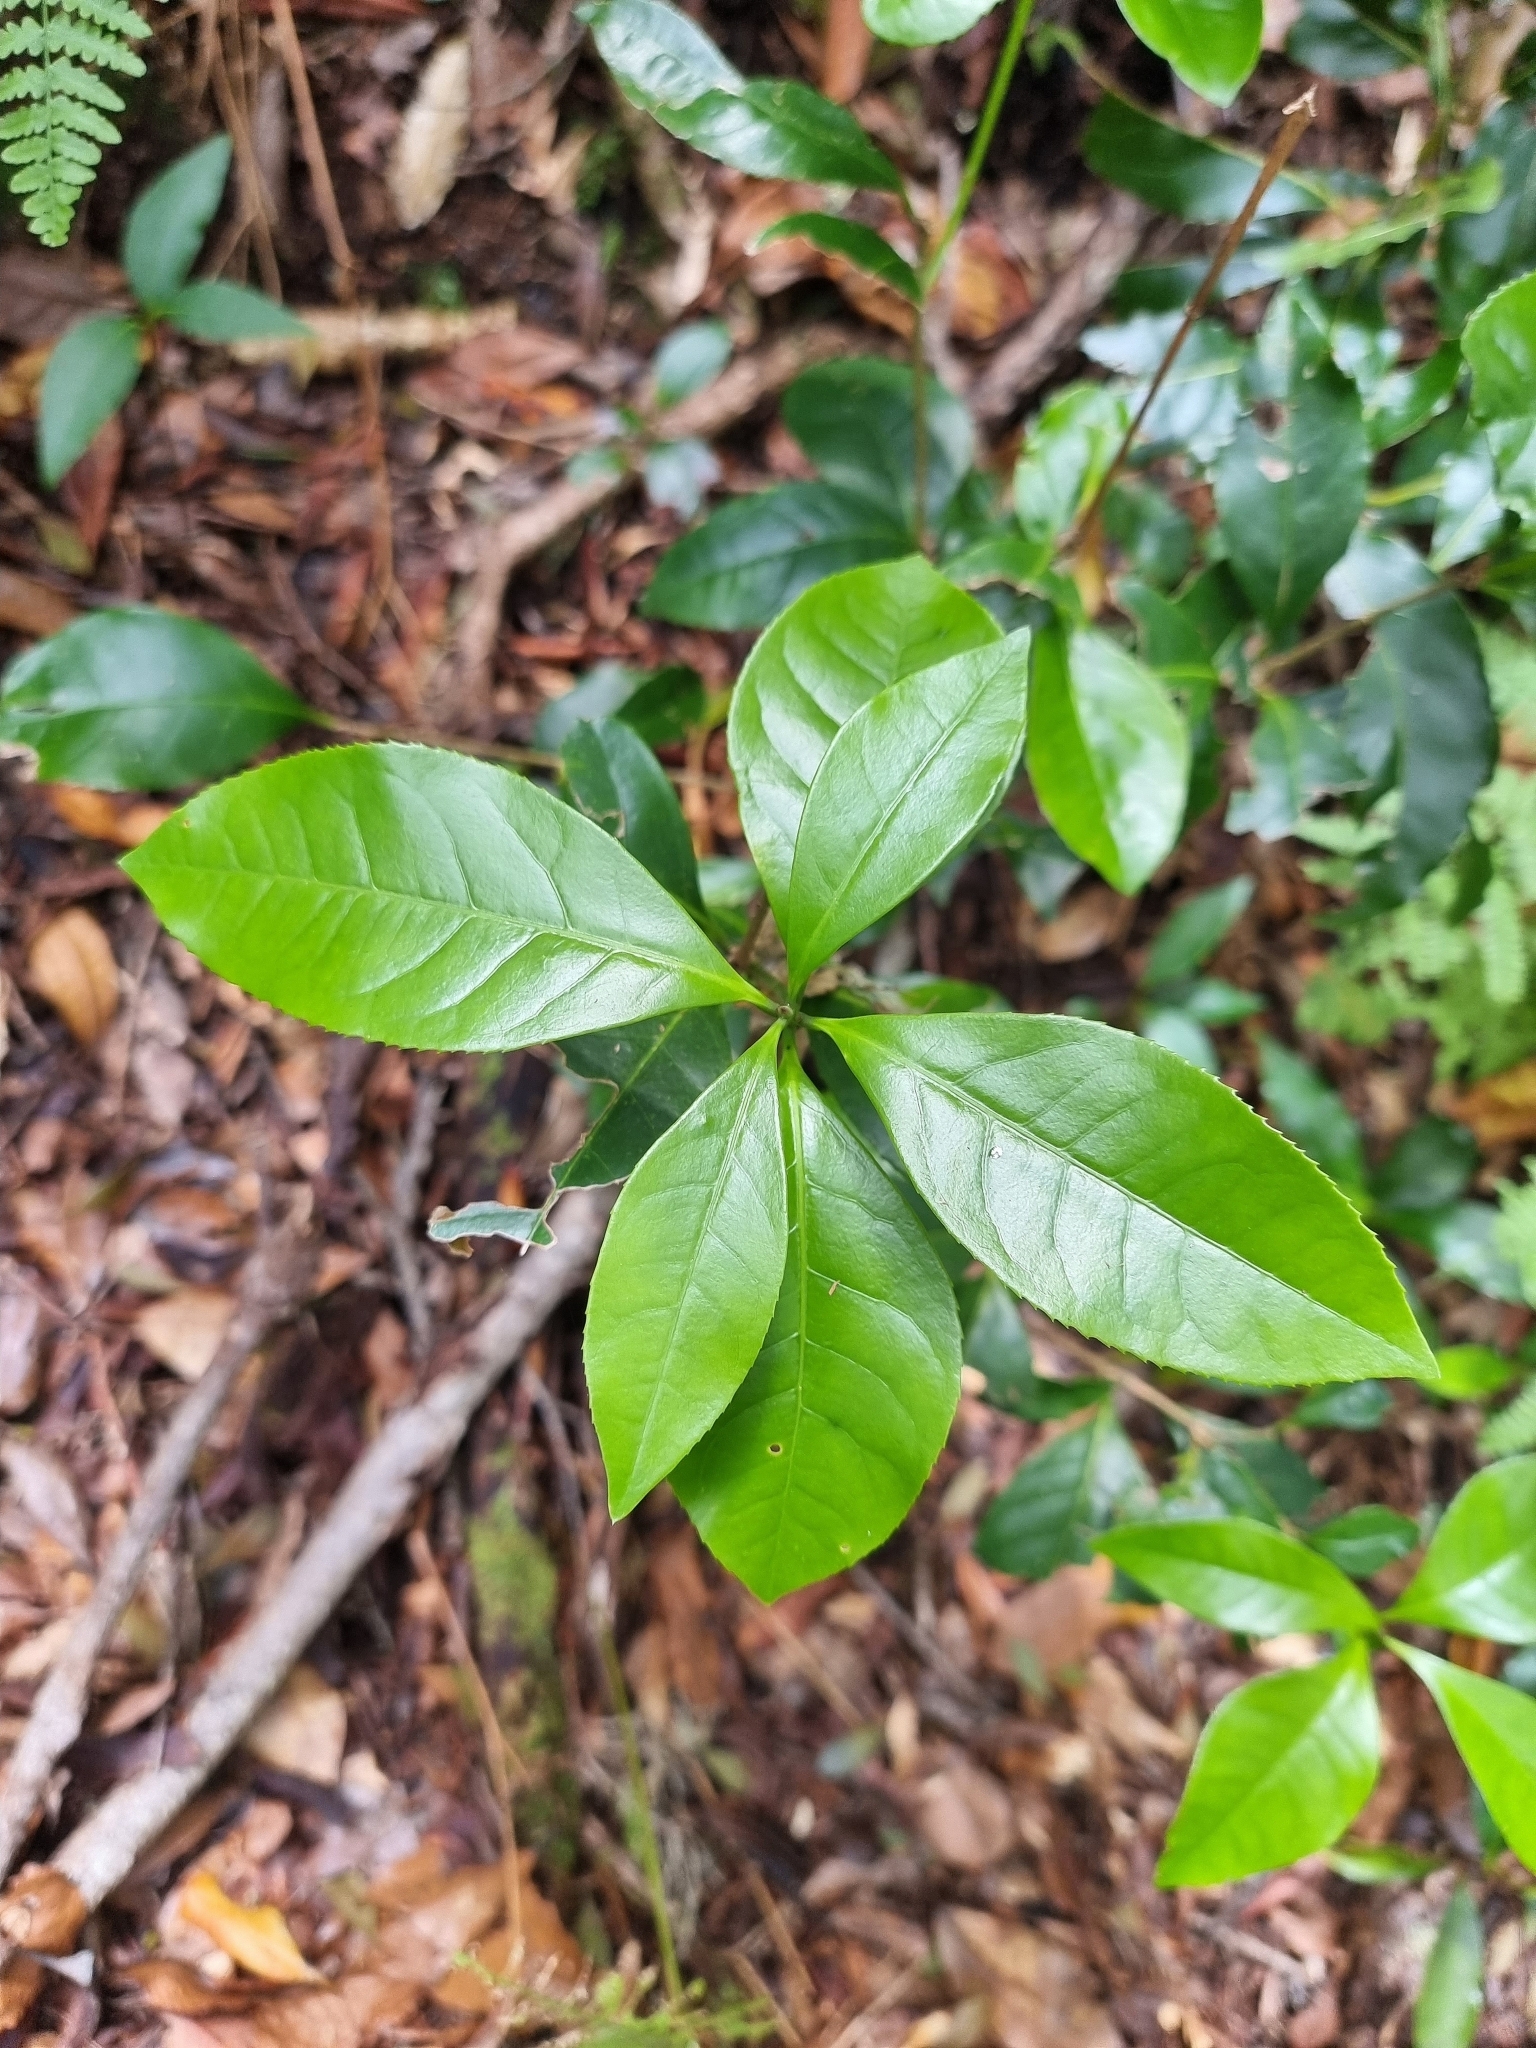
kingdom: Plantae
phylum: Tracheophyta
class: Magnoliopsida
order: Lamiales
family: Oleaceae
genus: Picconia
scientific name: Picconia excelsa
